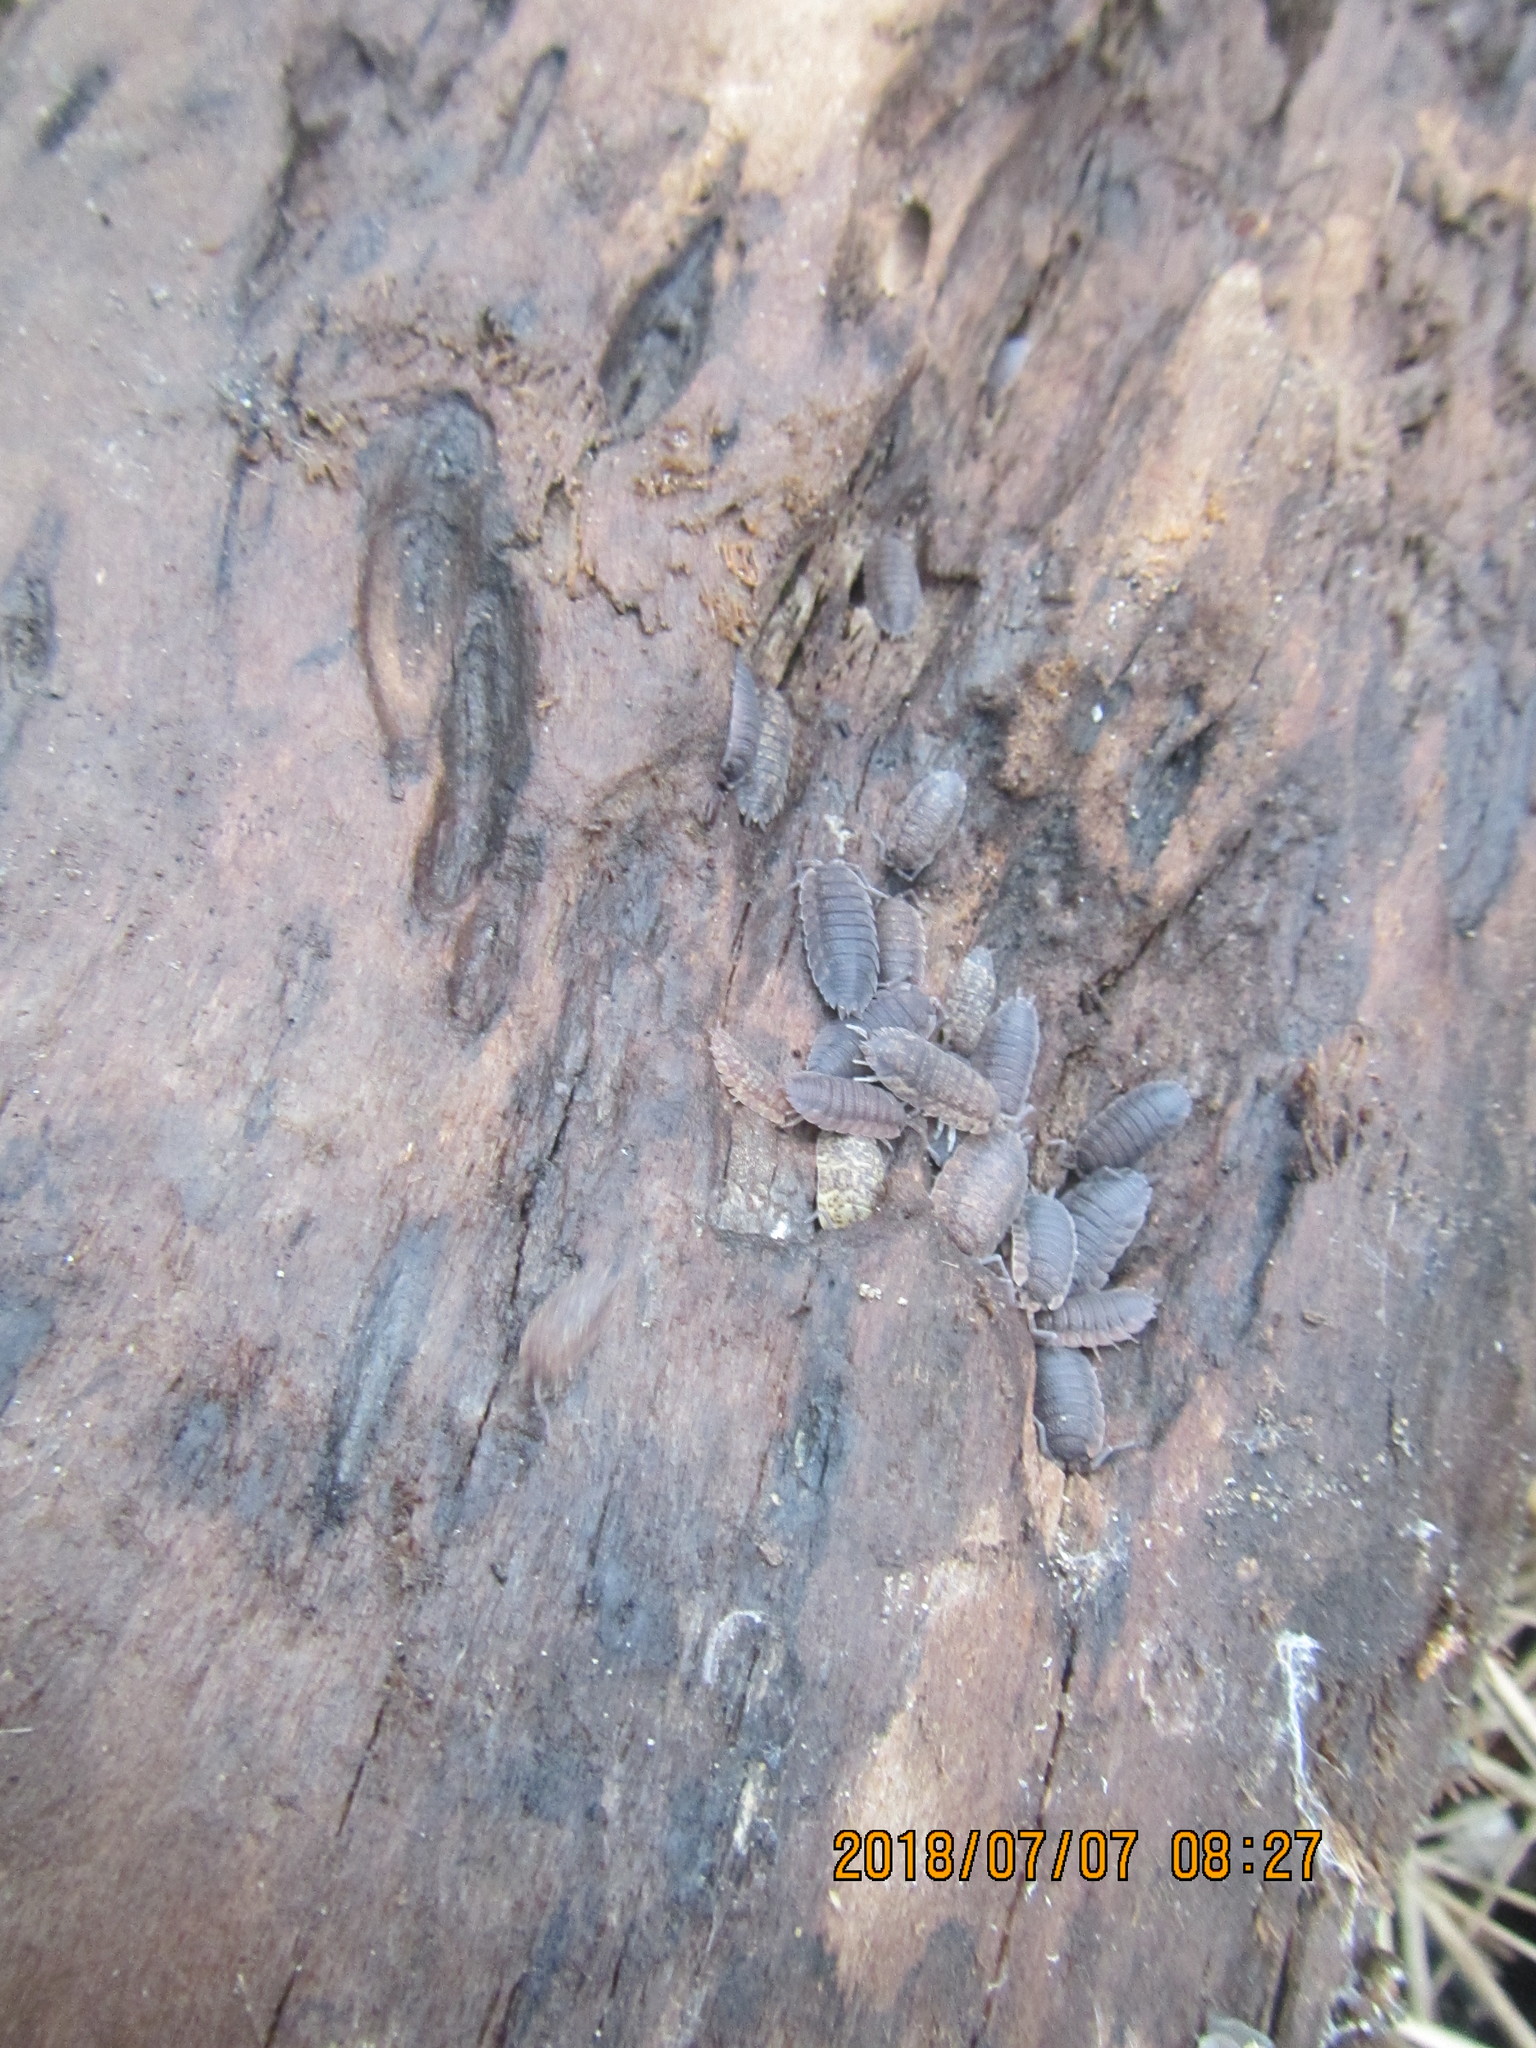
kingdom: Animalia
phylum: Arthropoda
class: Malacostraca
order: Isopoda
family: Porcellionidae
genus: Porcellio
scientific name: Porcellio scaber
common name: Common rough woodlouse
